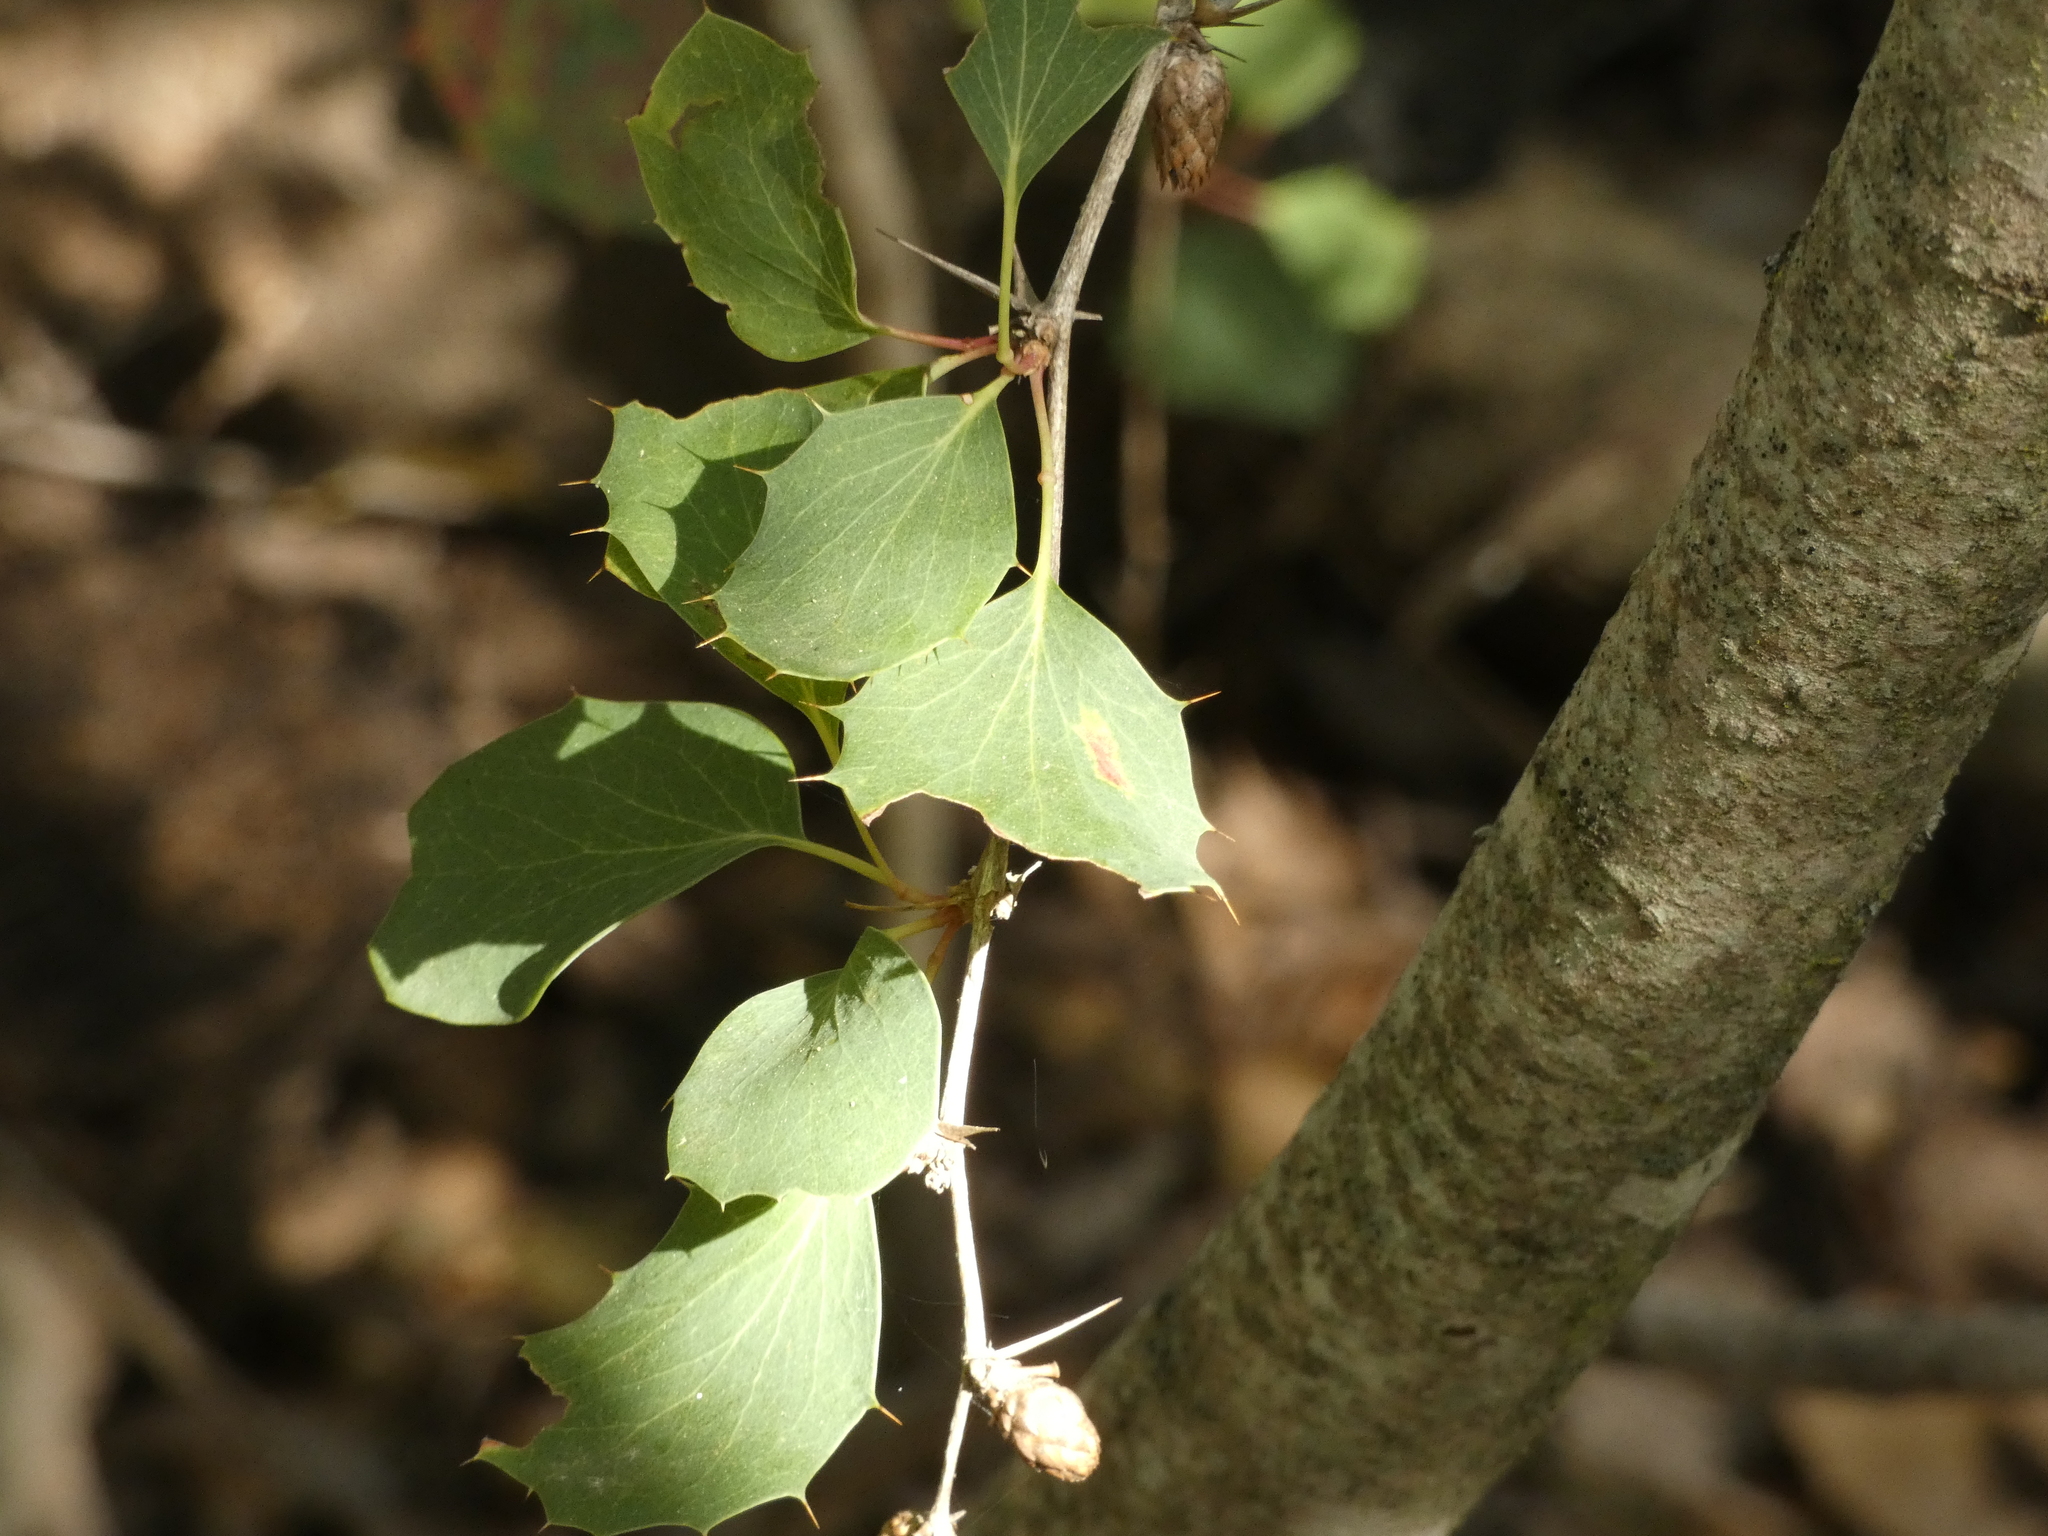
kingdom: Plantae
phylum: Tracheophyta
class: Magnoliopsida
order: Ranunculales
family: Berberidaceae
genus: Berberis
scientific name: Berberis actinacantha
